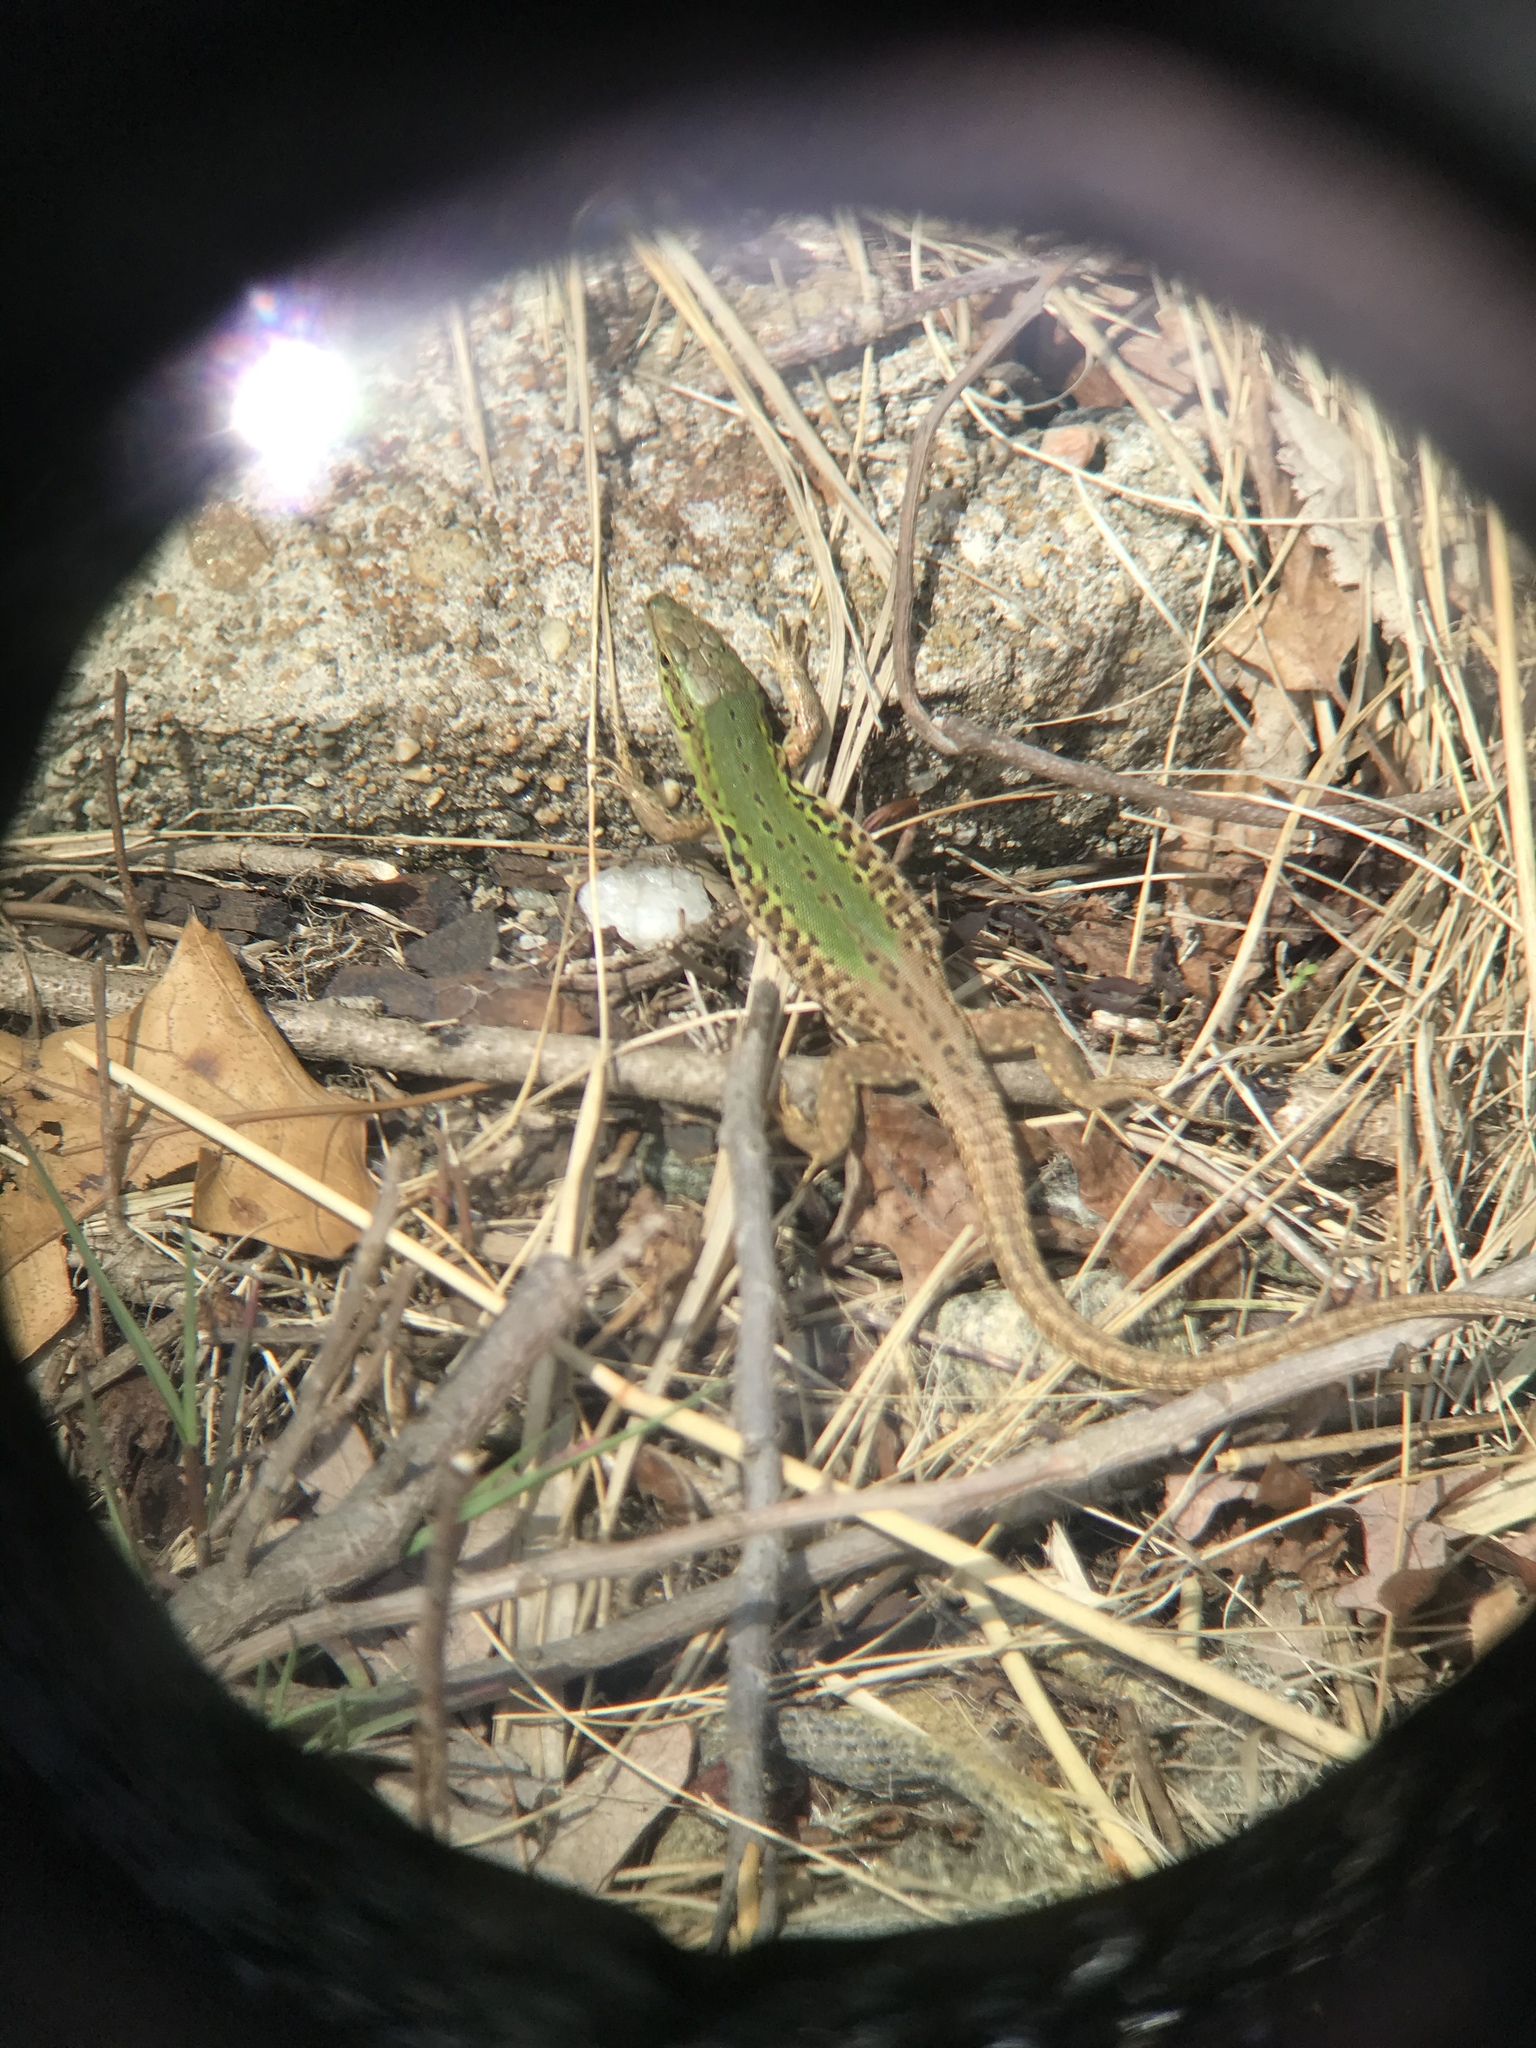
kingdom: Animalia
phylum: Chordata
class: Squamata
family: Lacertidae
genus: Podarcis
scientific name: Podarcis siculus
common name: Italian wall lizard
